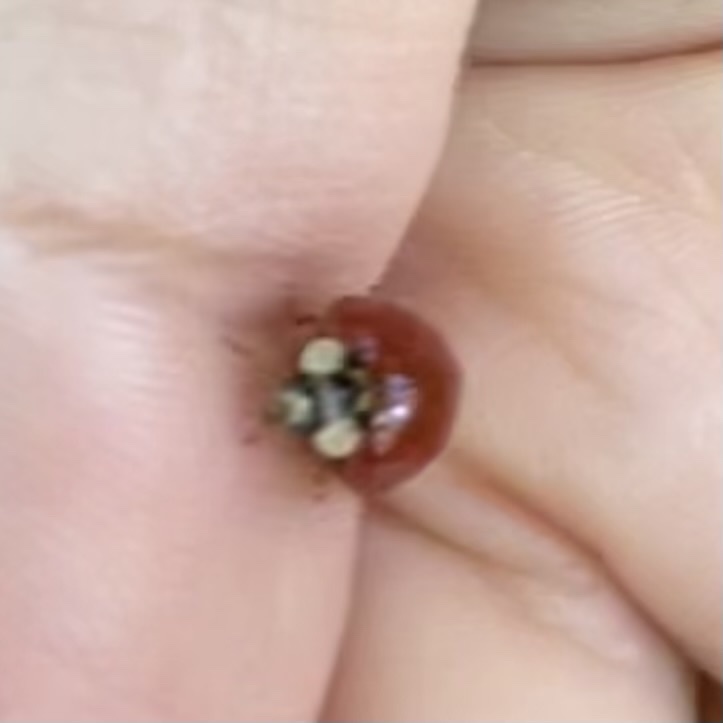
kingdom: Animalia
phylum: Arthropoda
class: Insecta
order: Coleoptera
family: Coccinellidae
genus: Harmonia
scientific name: Harmonia axyridis
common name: Harlequin ladybird
